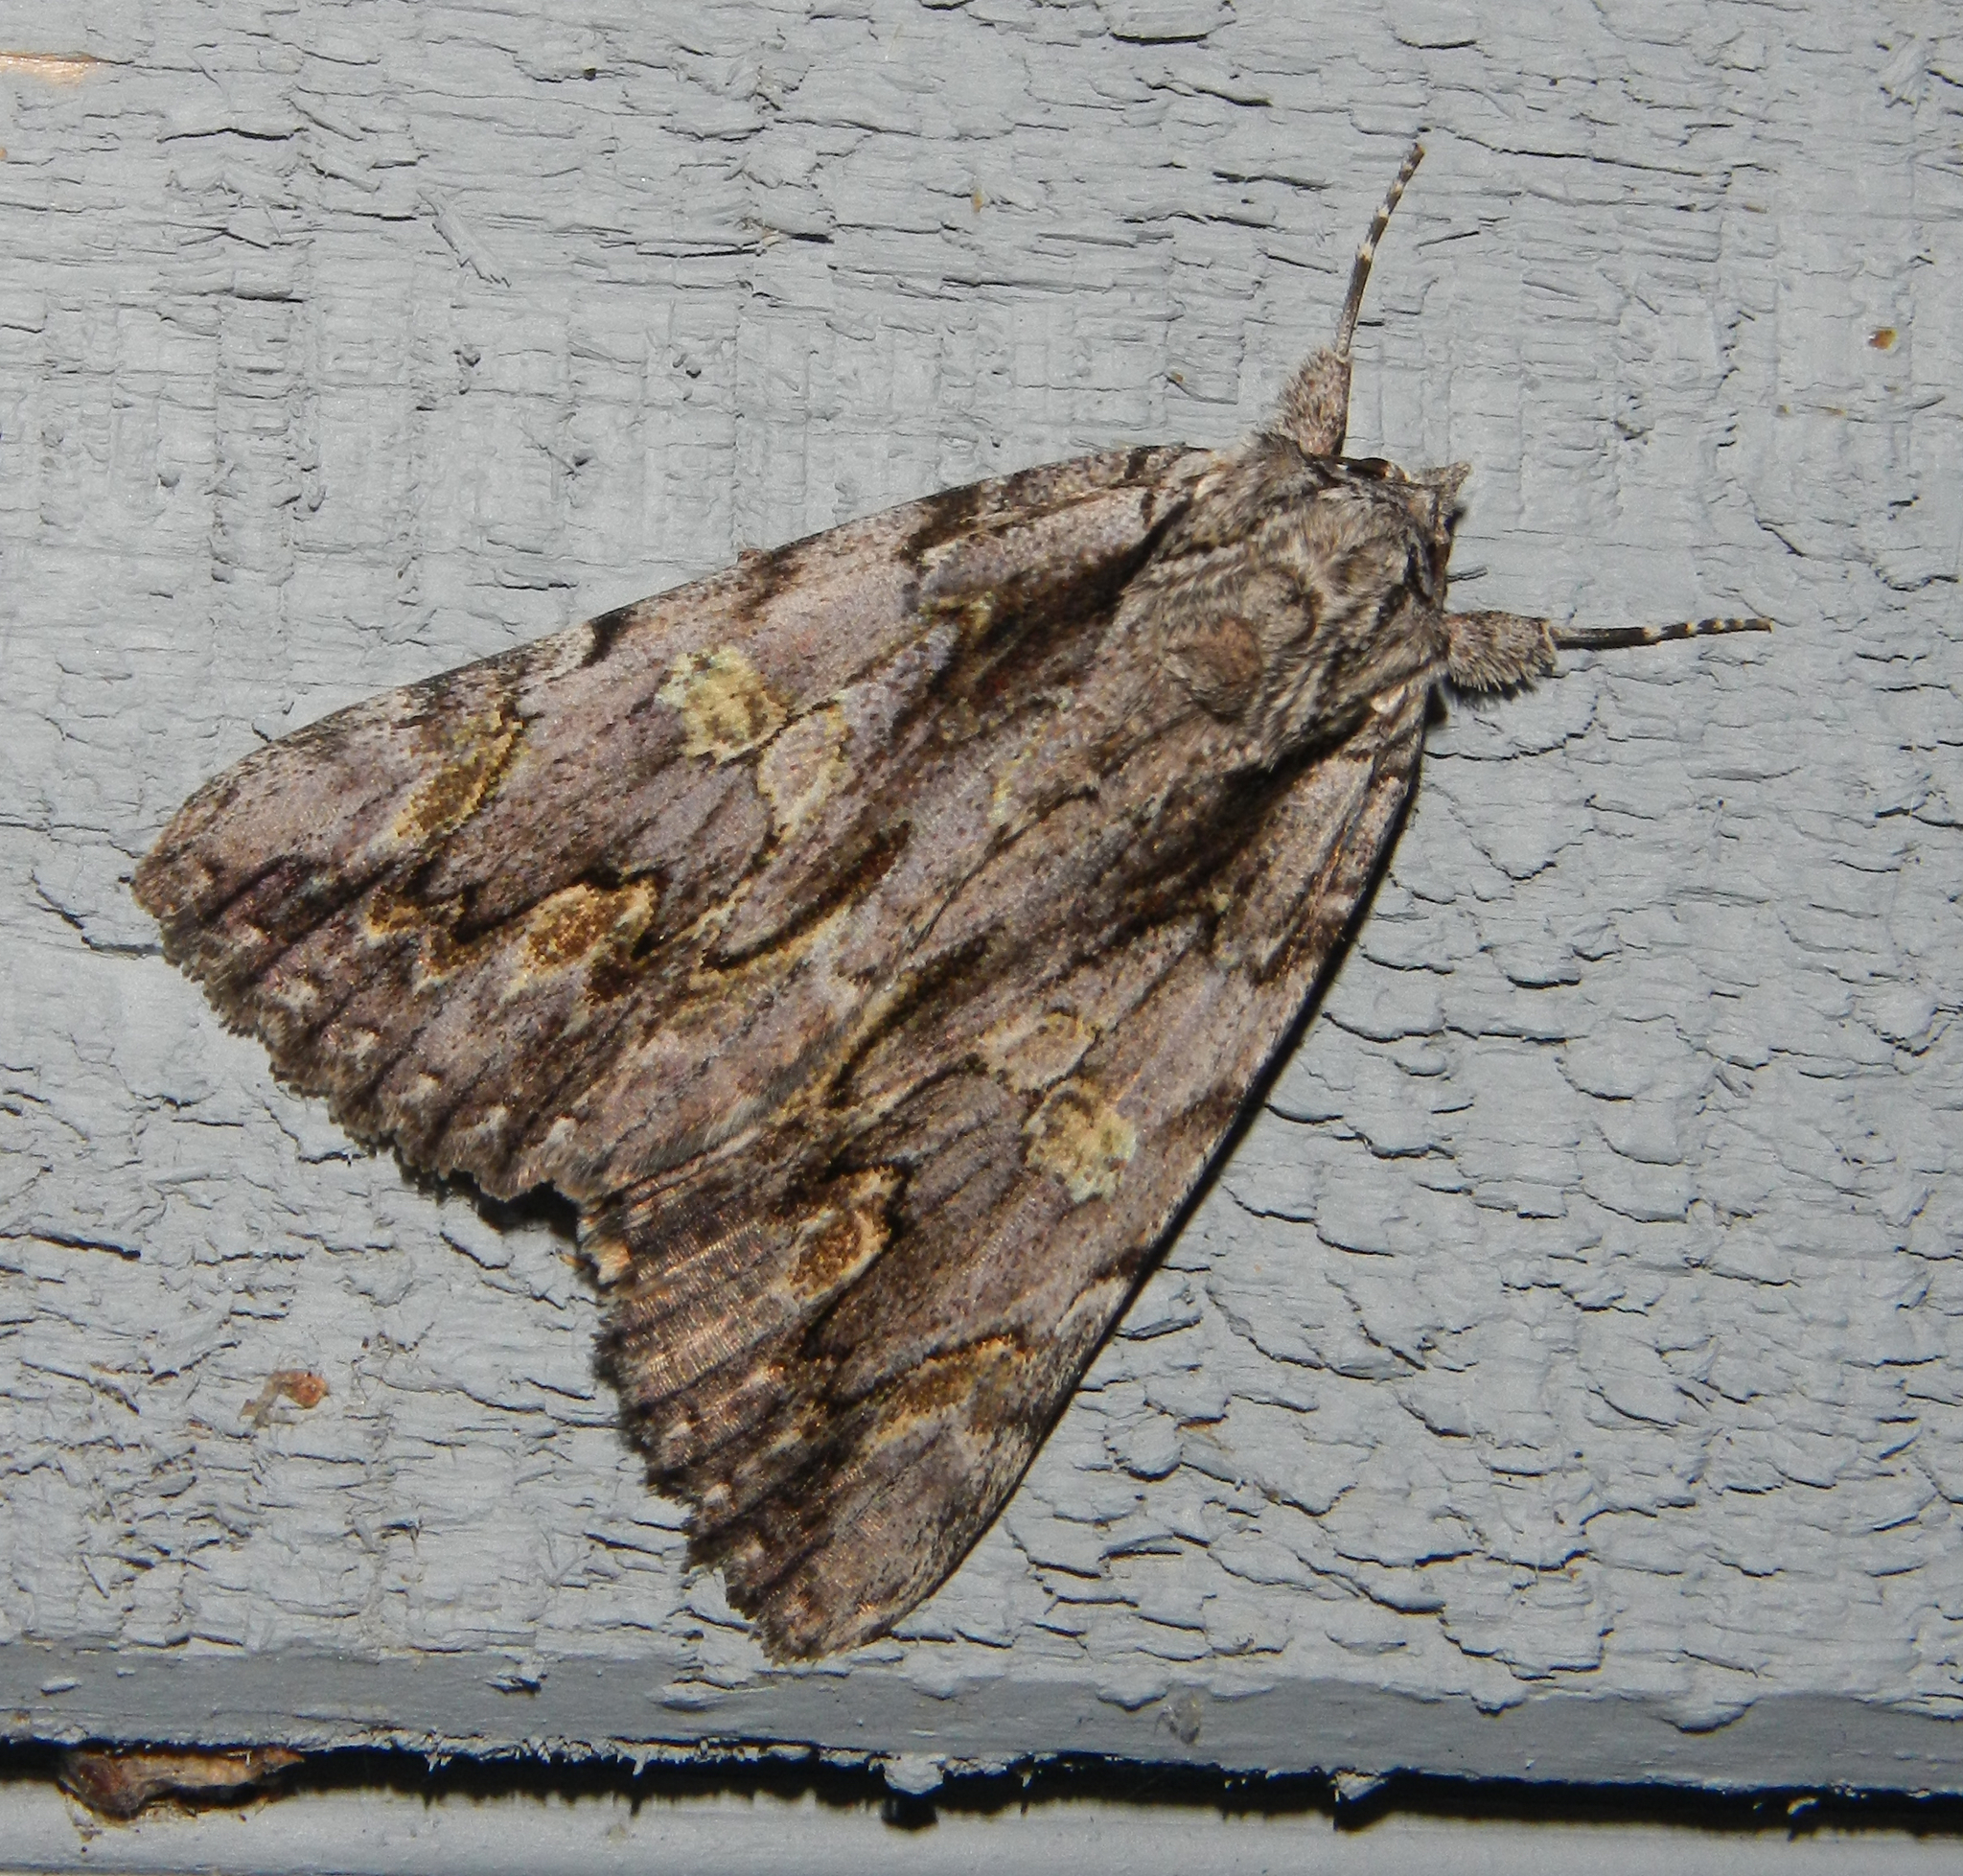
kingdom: Animalia
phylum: Arthropoda
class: Insecta
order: Lepidoptera
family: Erebidae
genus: Catocala
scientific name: Catocala coccinata
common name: Scarlet underwing
